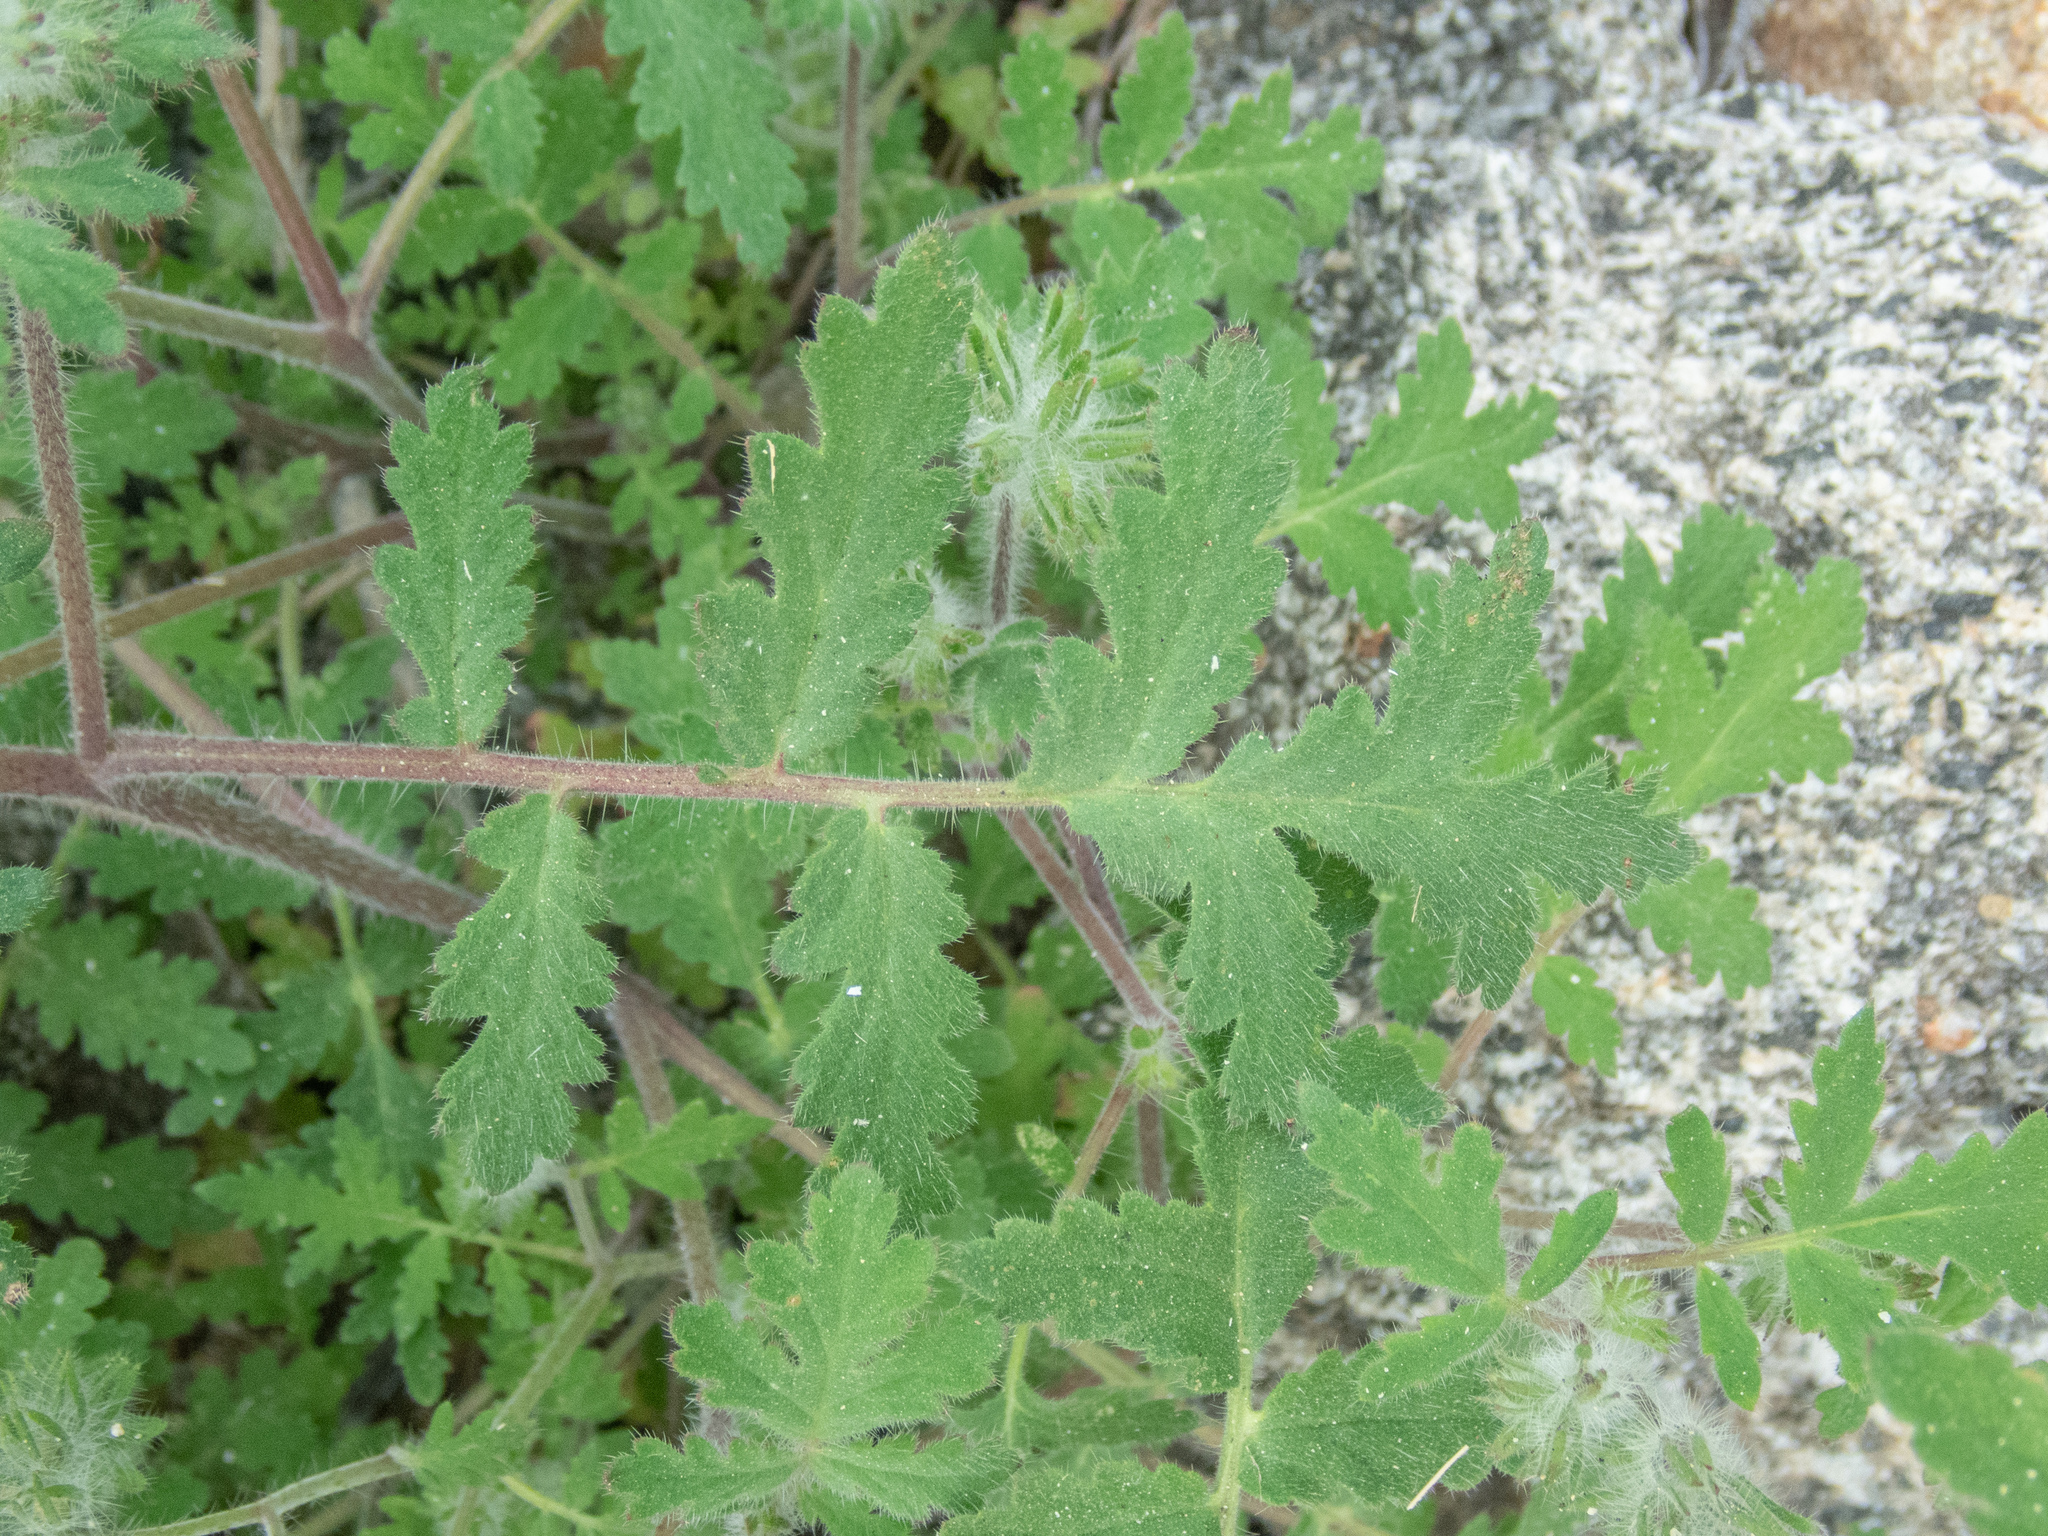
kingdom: Plantae
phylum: Tracheophyta
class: Magnoliopsida
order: Boraginales
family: Hydrophyllaceae
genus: Phacelia
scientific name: Phacelia cicutaria
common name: Caterpillar phacelia
